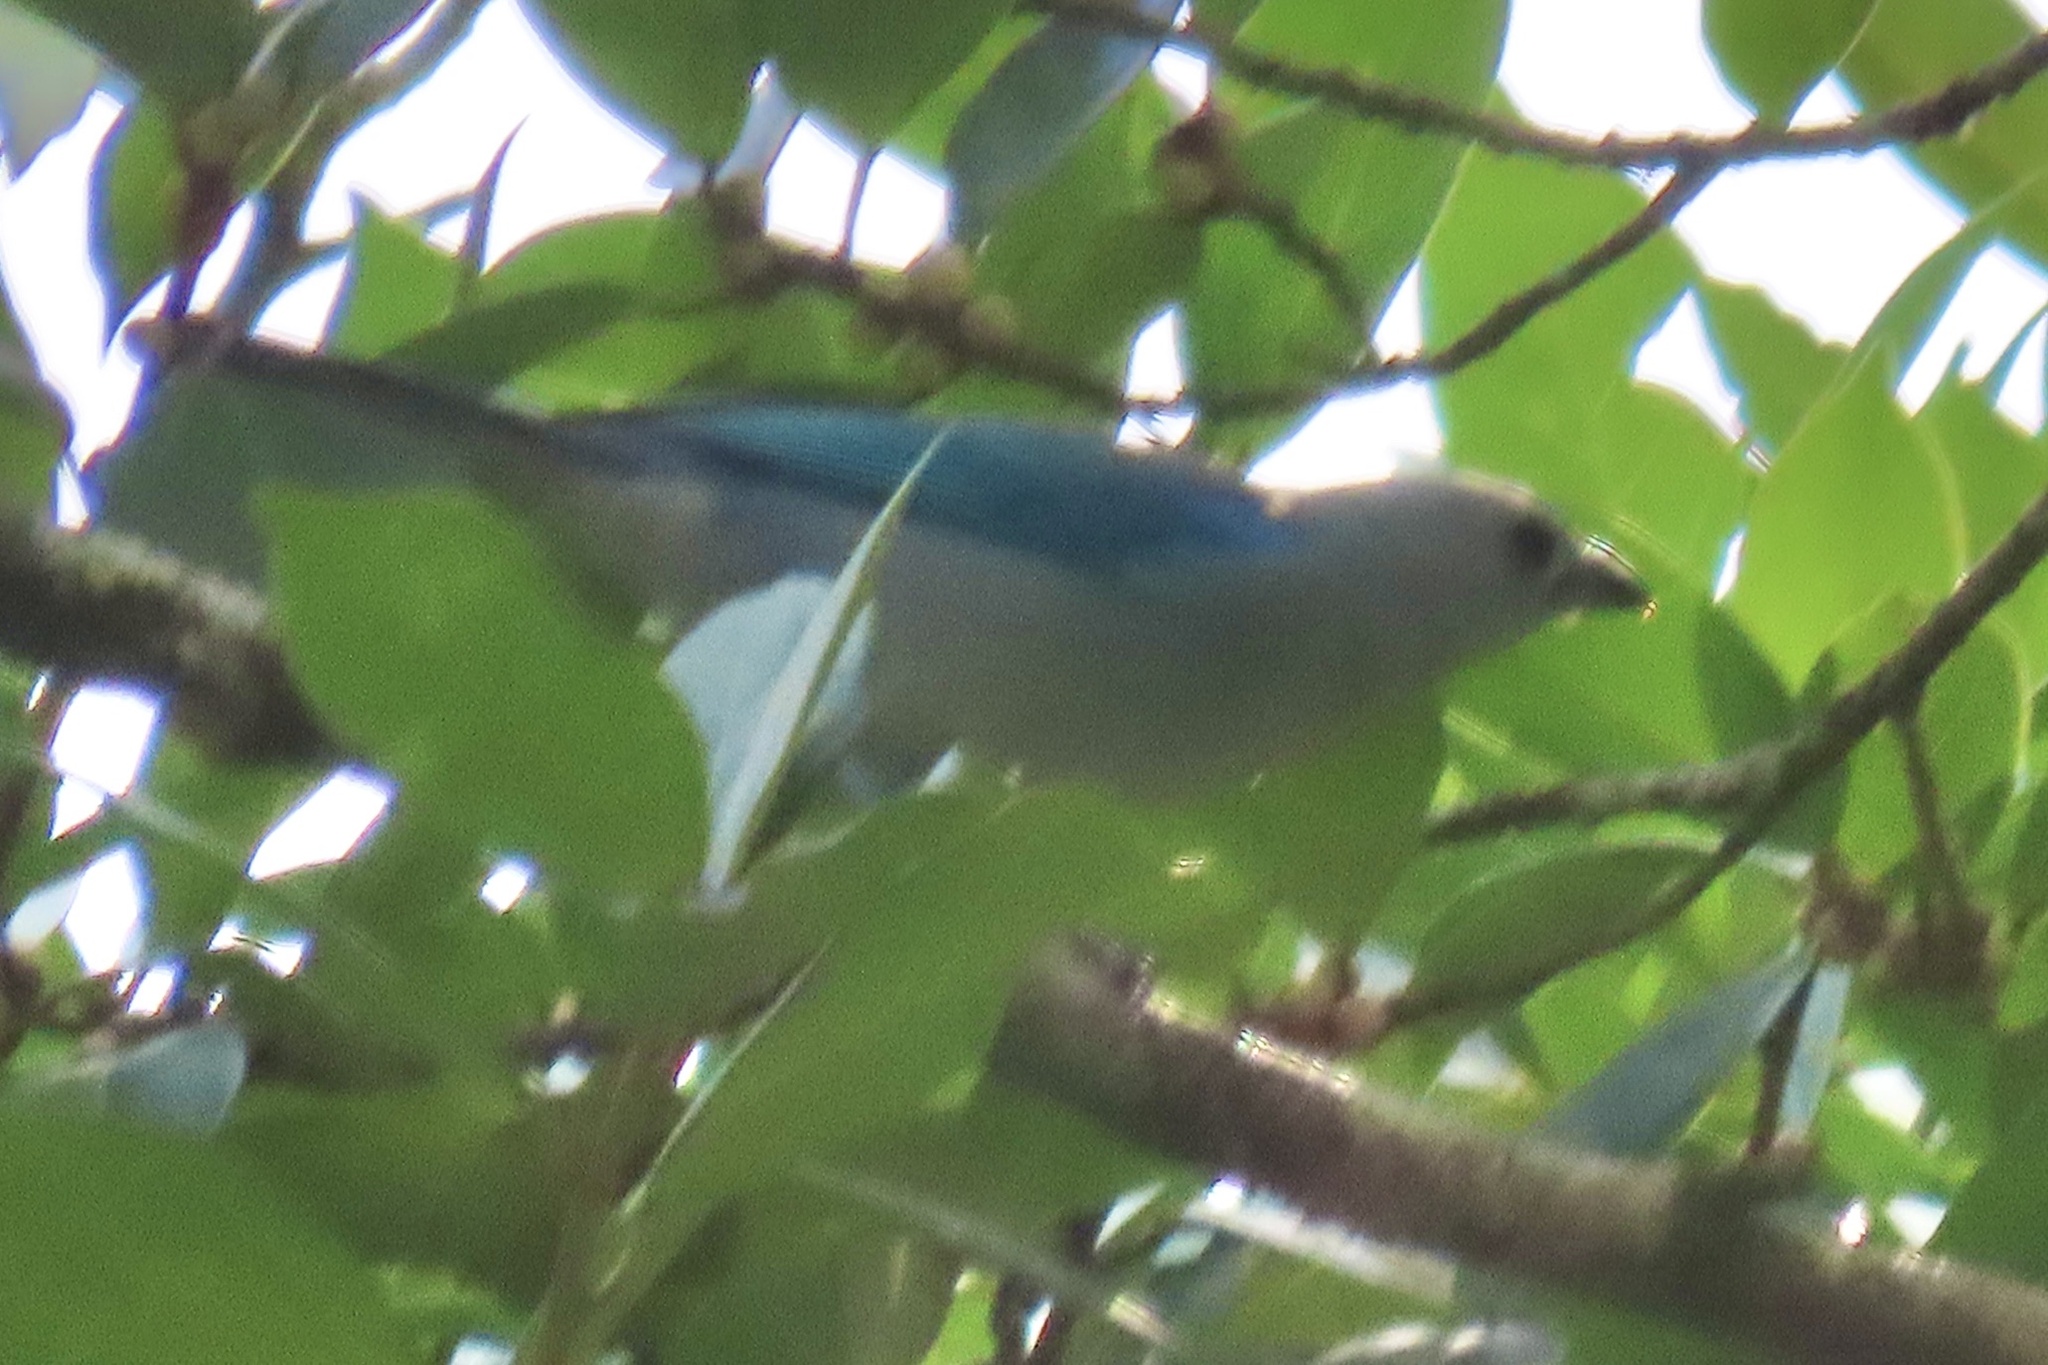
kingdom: Animalia
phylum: Chordata
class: Aves
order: Passeriformes
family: Thraupidae
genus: Thraupis
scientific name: Thraupis episcopus
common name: Blue-grey tanager
